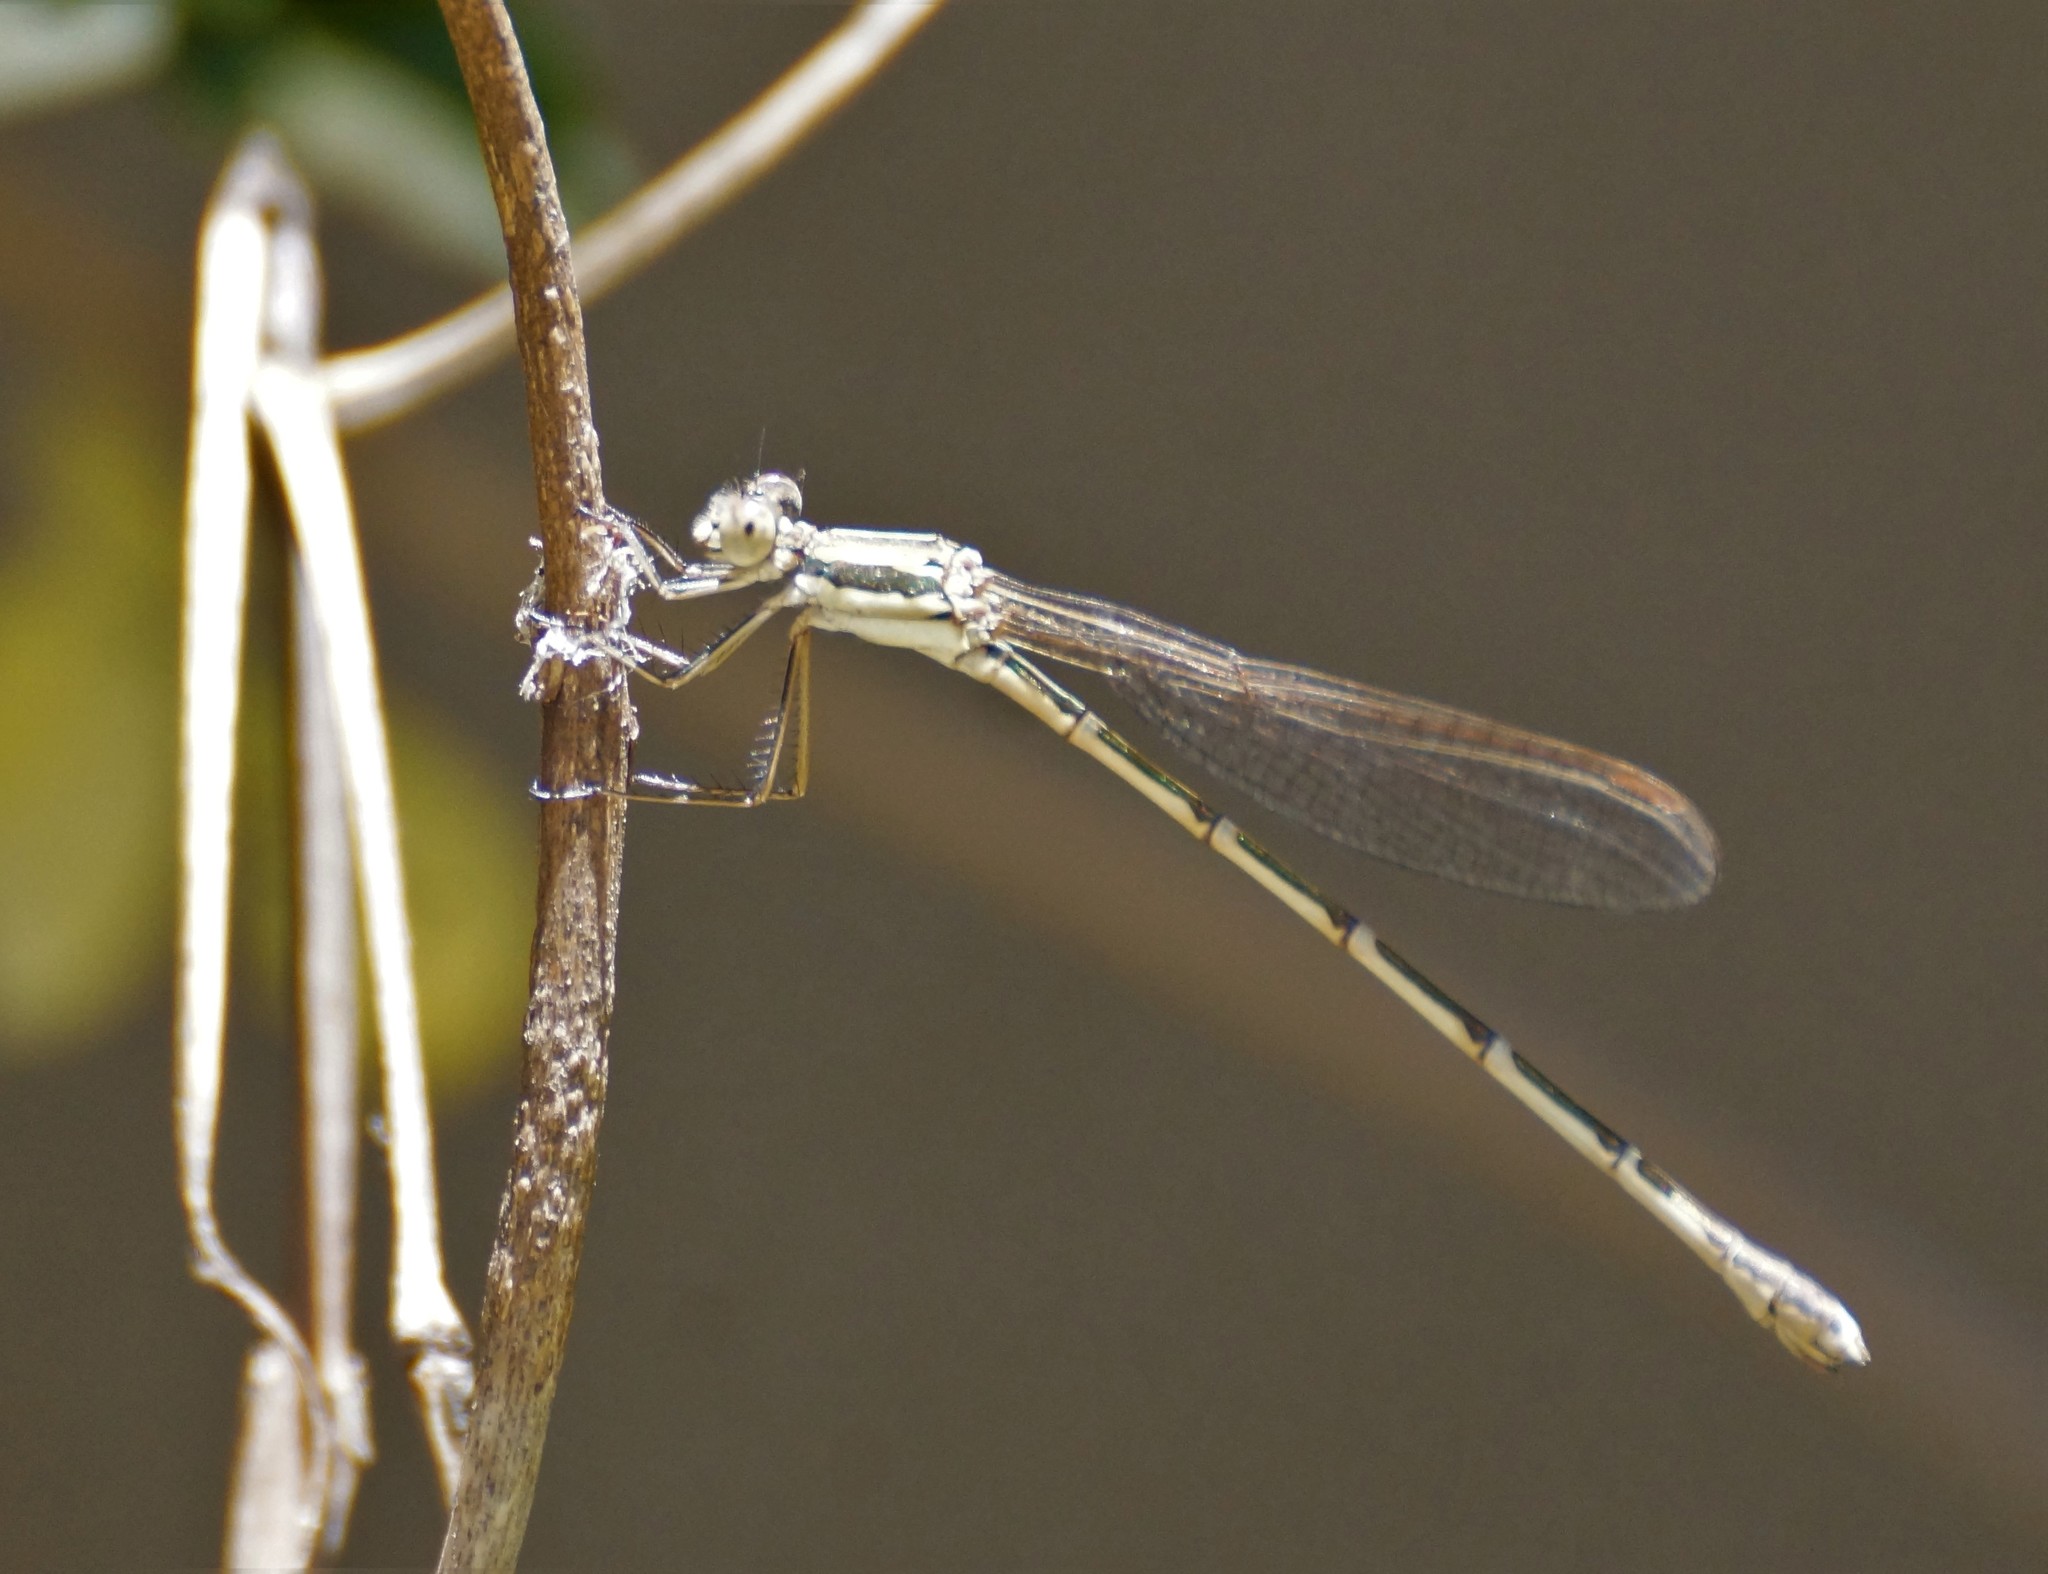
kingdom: Animalia
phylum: Arthropoda
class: Insecta
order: Odonata
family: Lestidae
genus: Austrolestes
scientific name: Austrolestes analis
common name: Slender ringtail
